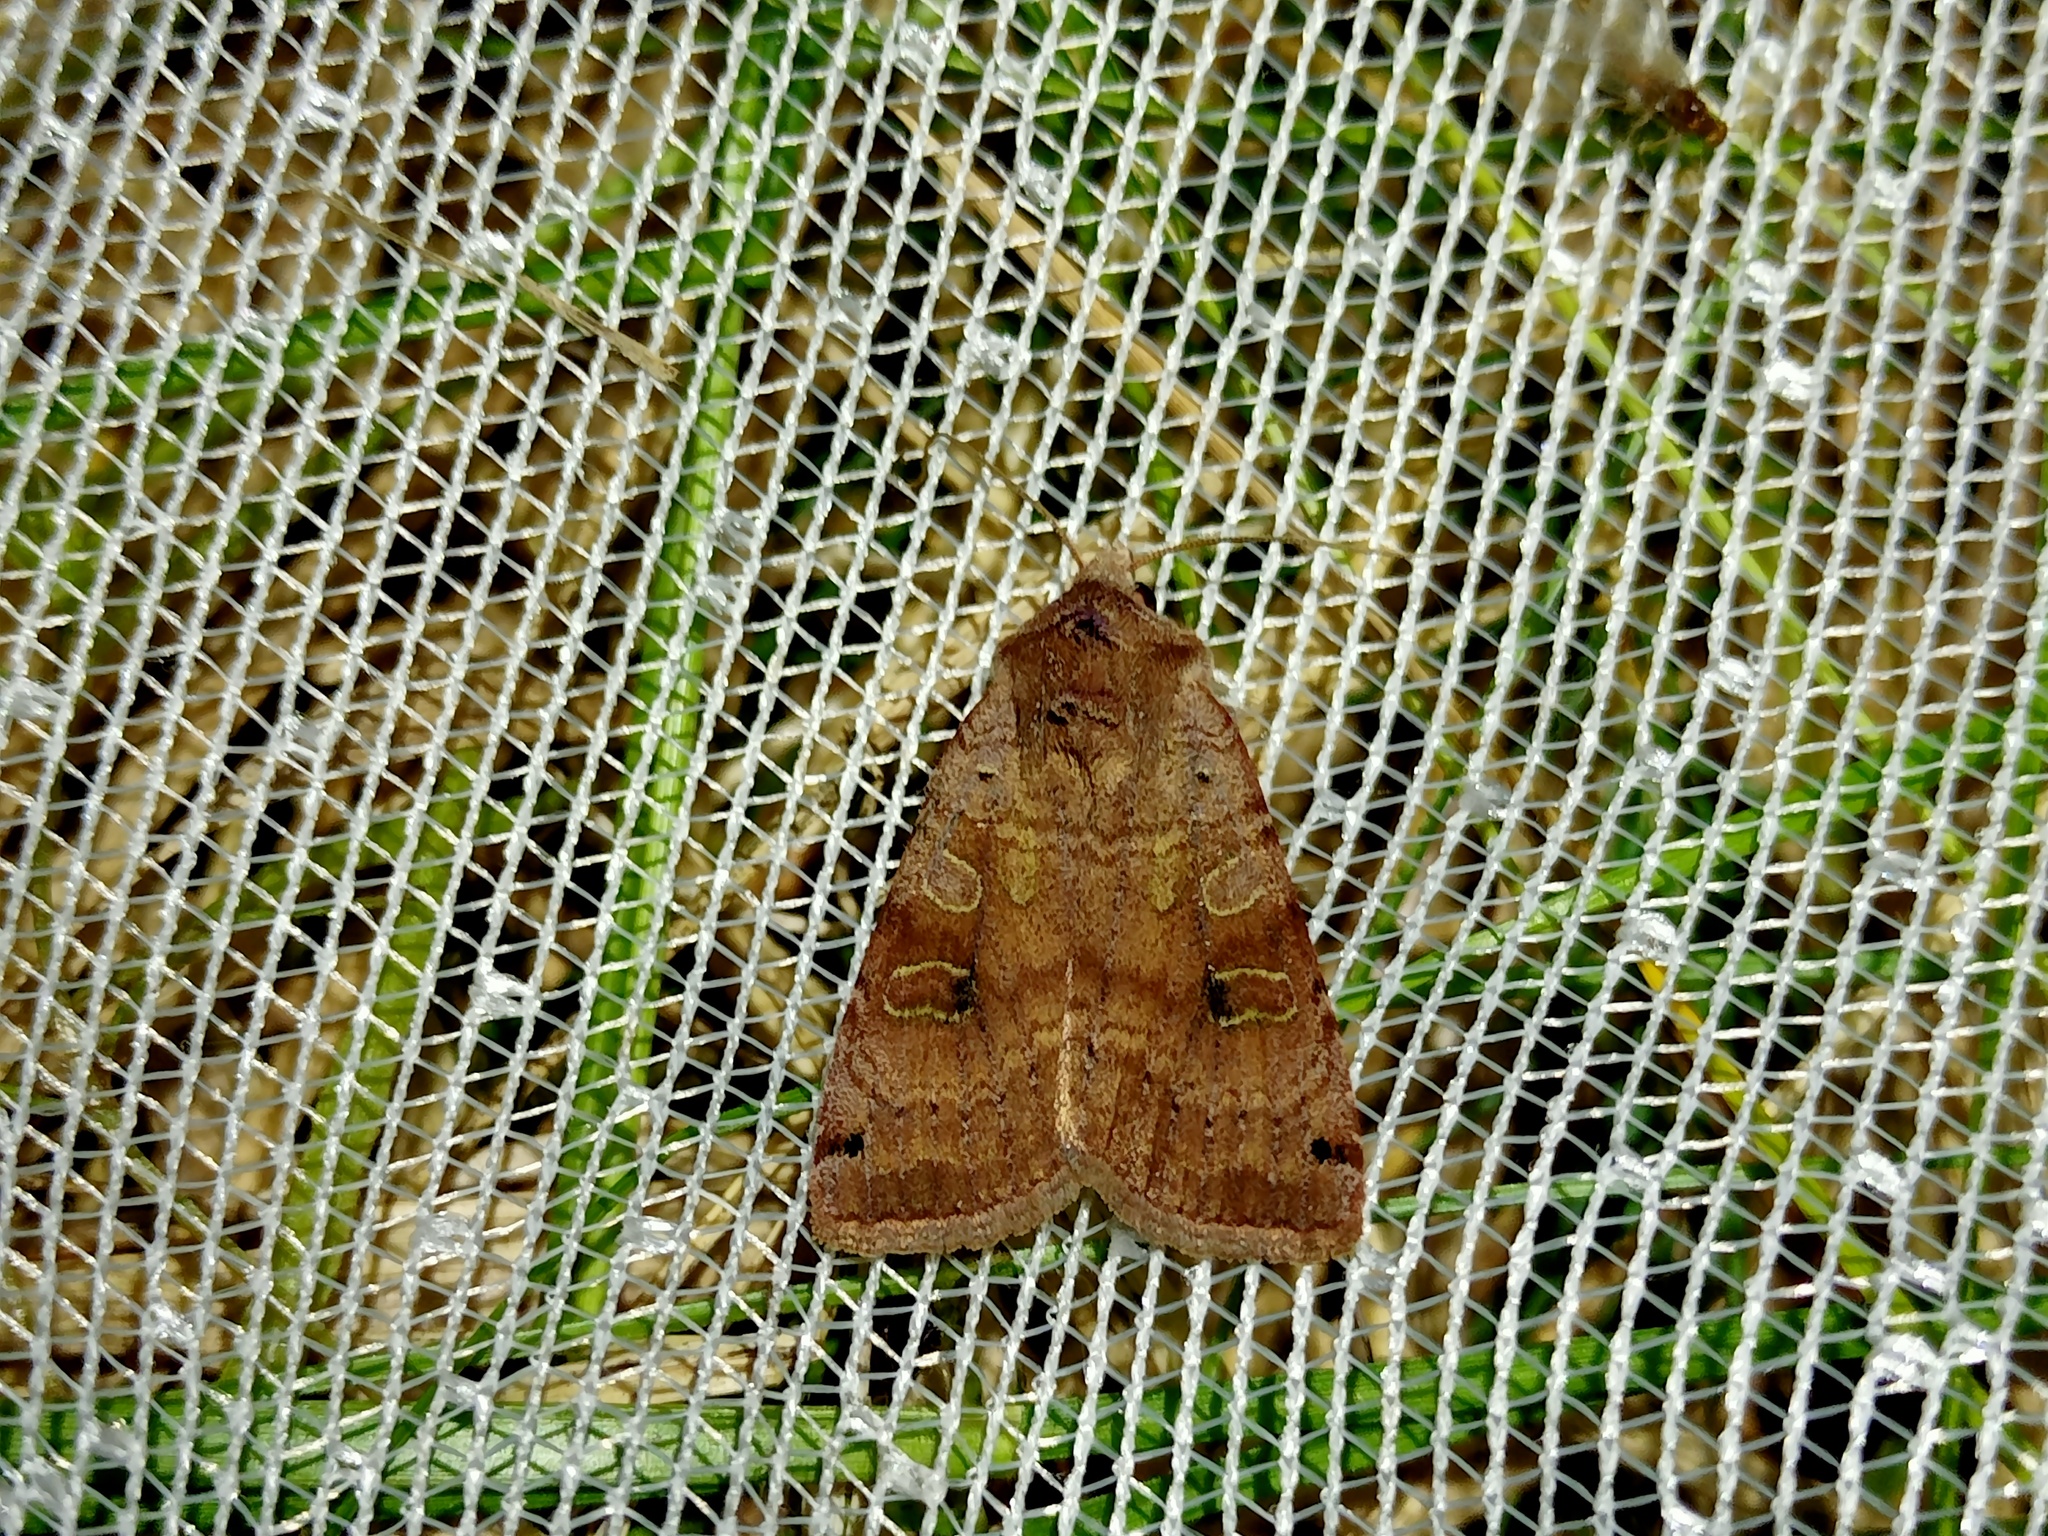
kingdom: Animalia
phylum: Arthropoda
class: Insecta
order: Lepidoptera
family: Noctuidae
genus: Xestia
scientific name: Xestia baja
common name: Dotted clay
